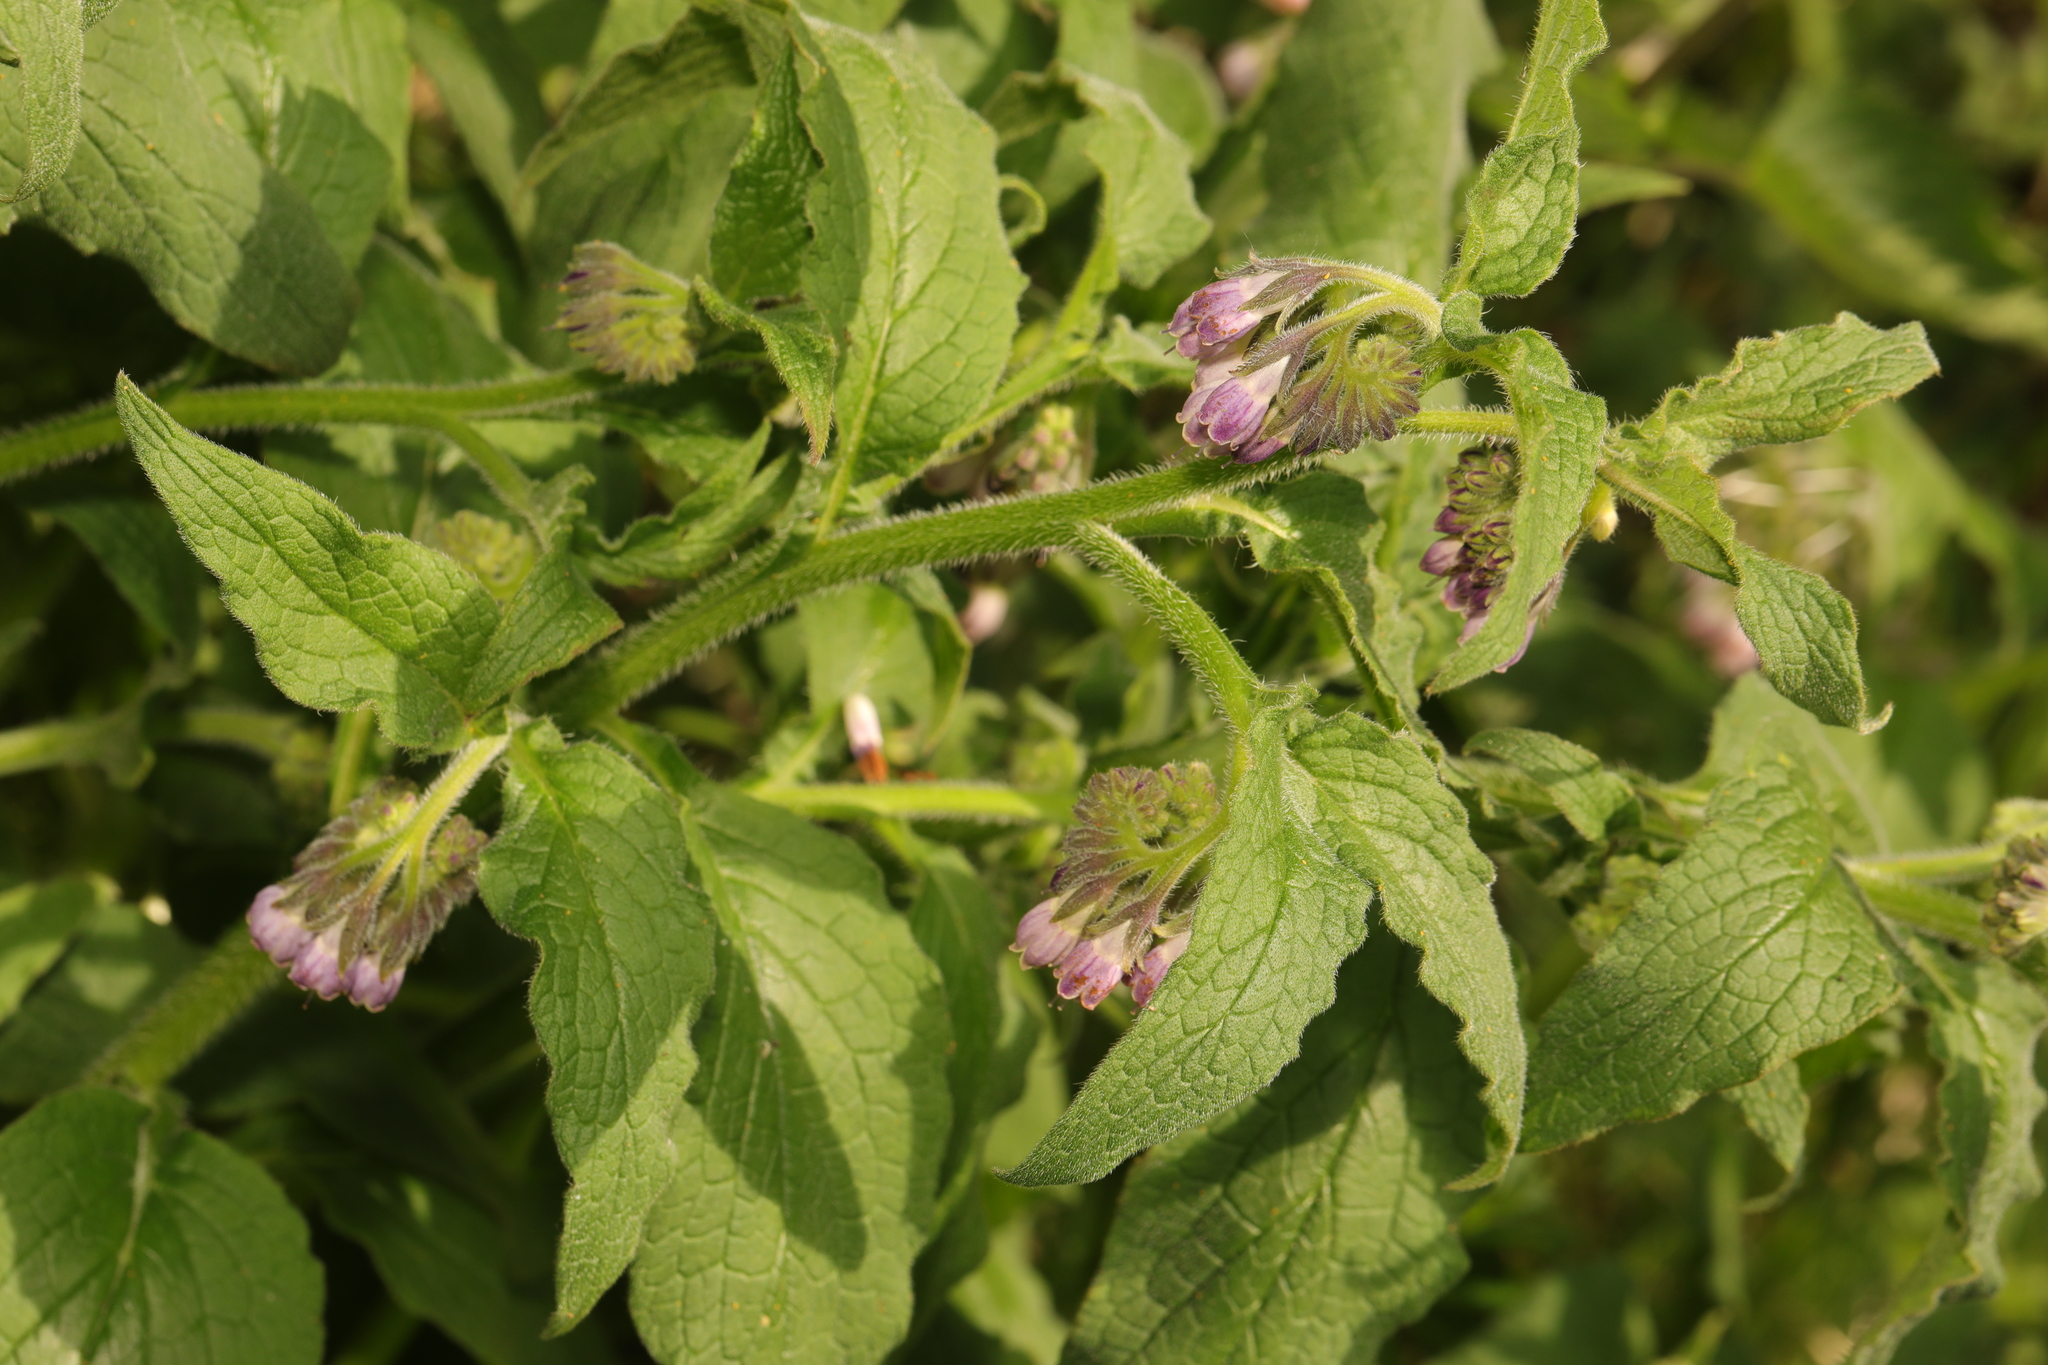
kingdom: Plantae
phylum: Tracheophyta
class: Magnoliopsida
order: Boraginales
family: Boraginaceae
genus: Symphytum
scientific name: Symphytum officinale
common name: Common comfrey
